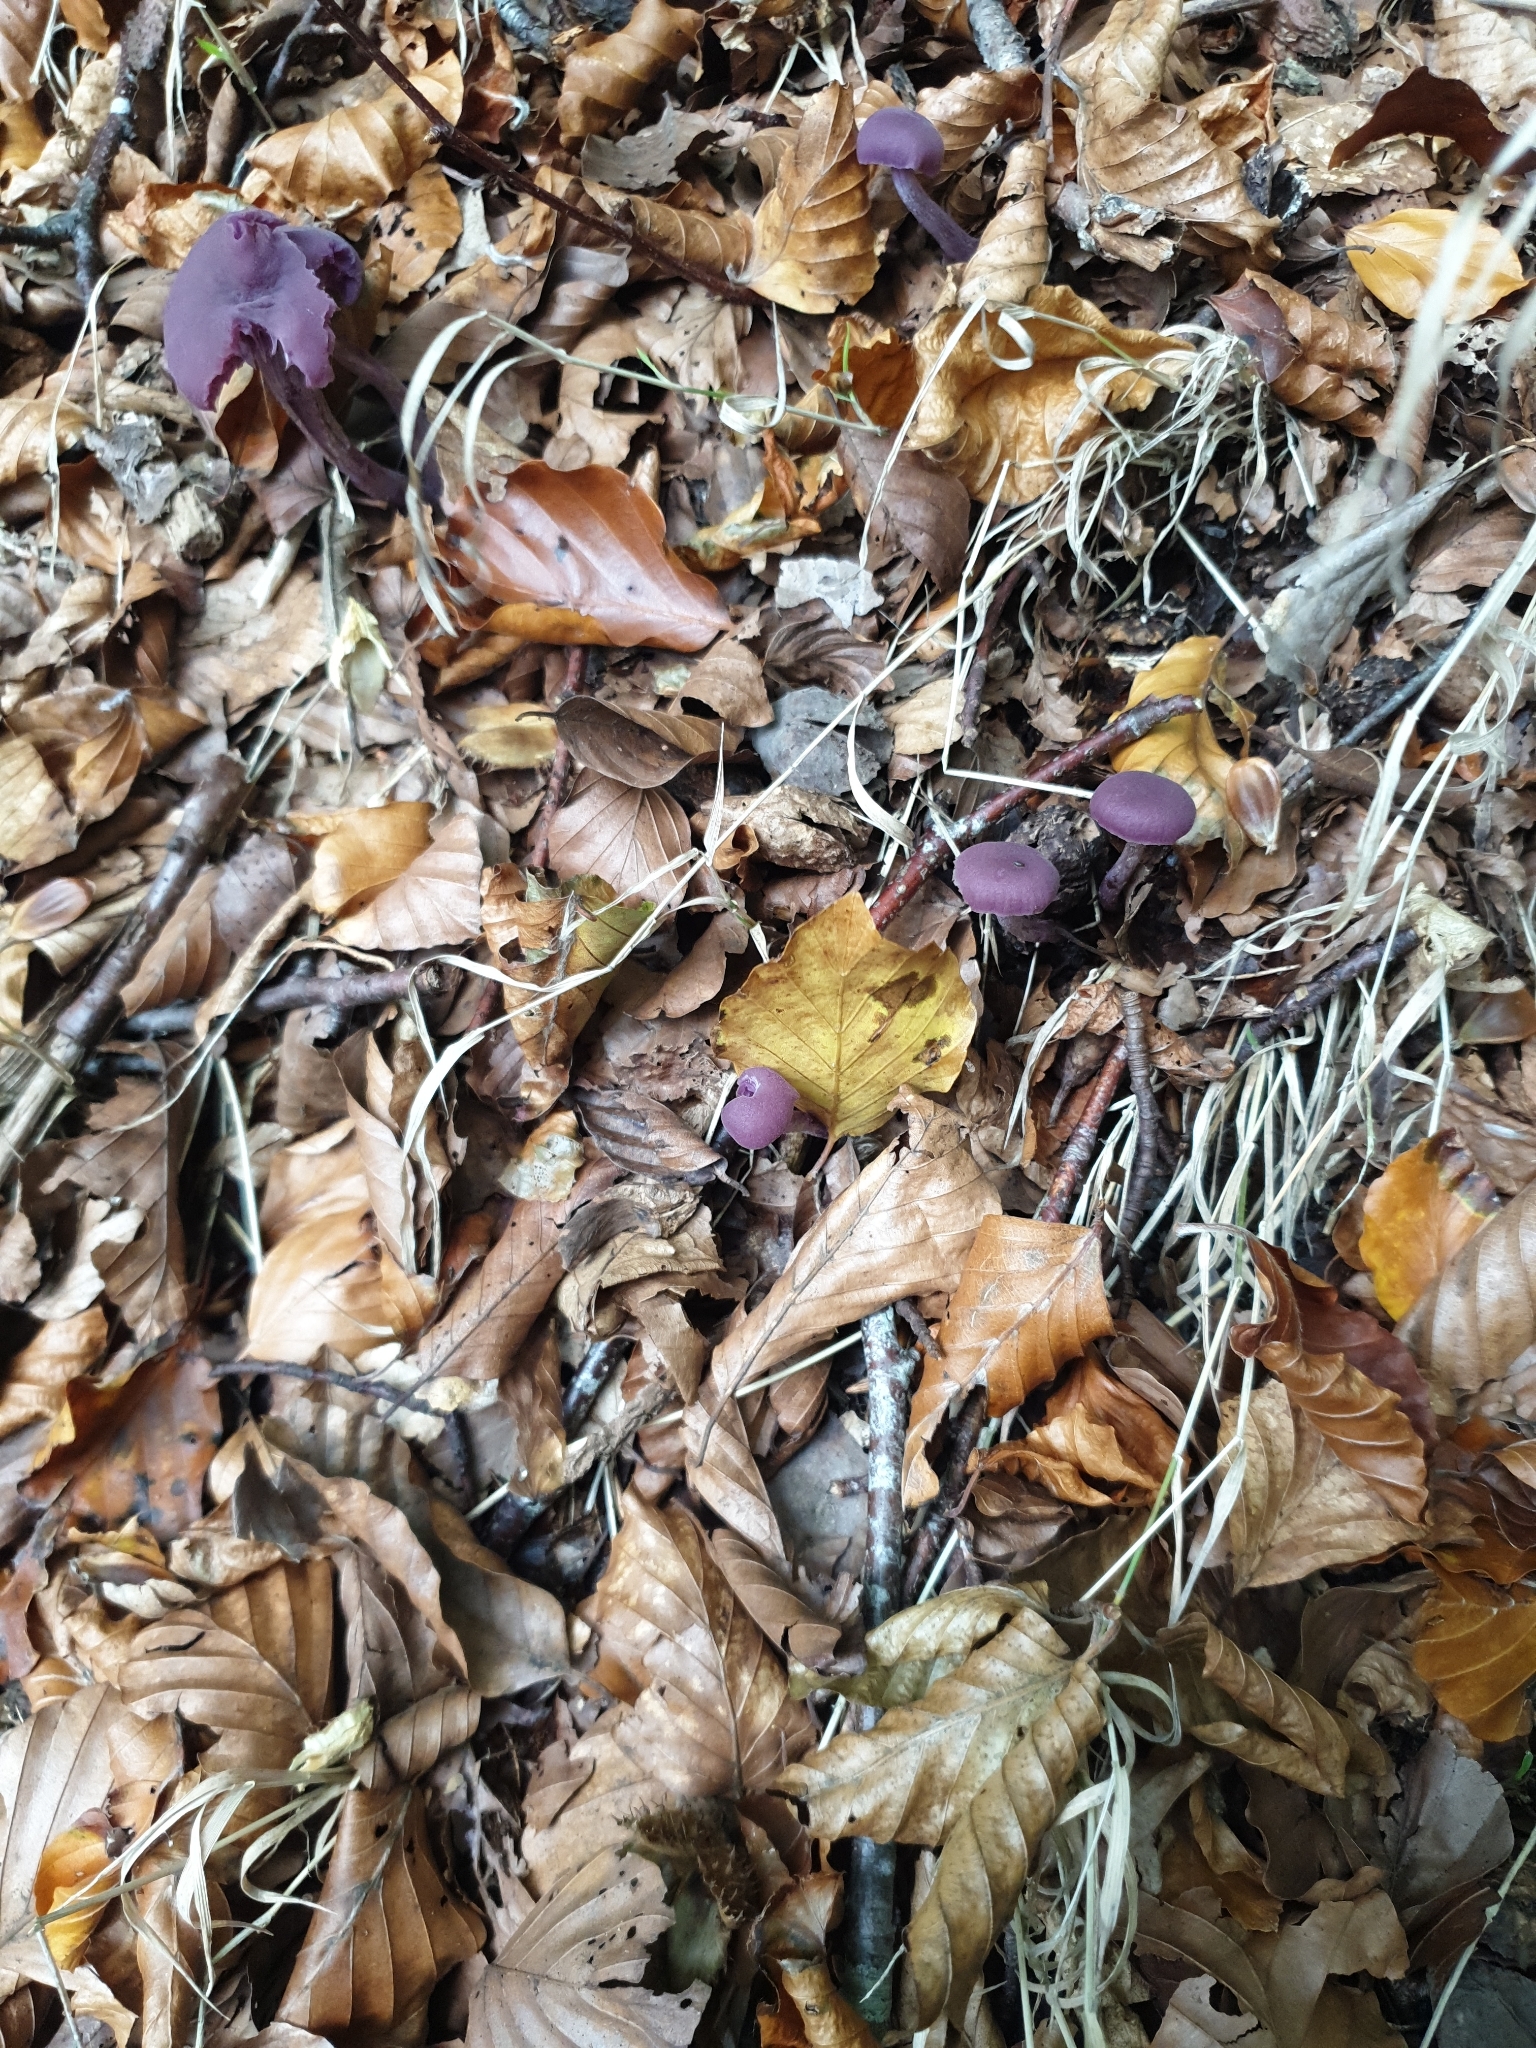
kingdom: Fungi
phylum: Basidiomycota
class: Agaricomycetes
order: Agaricales
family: Hydnangiaceae
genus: Laccaria
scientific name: Laccaria amethystina
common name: Amethyst deceiver
